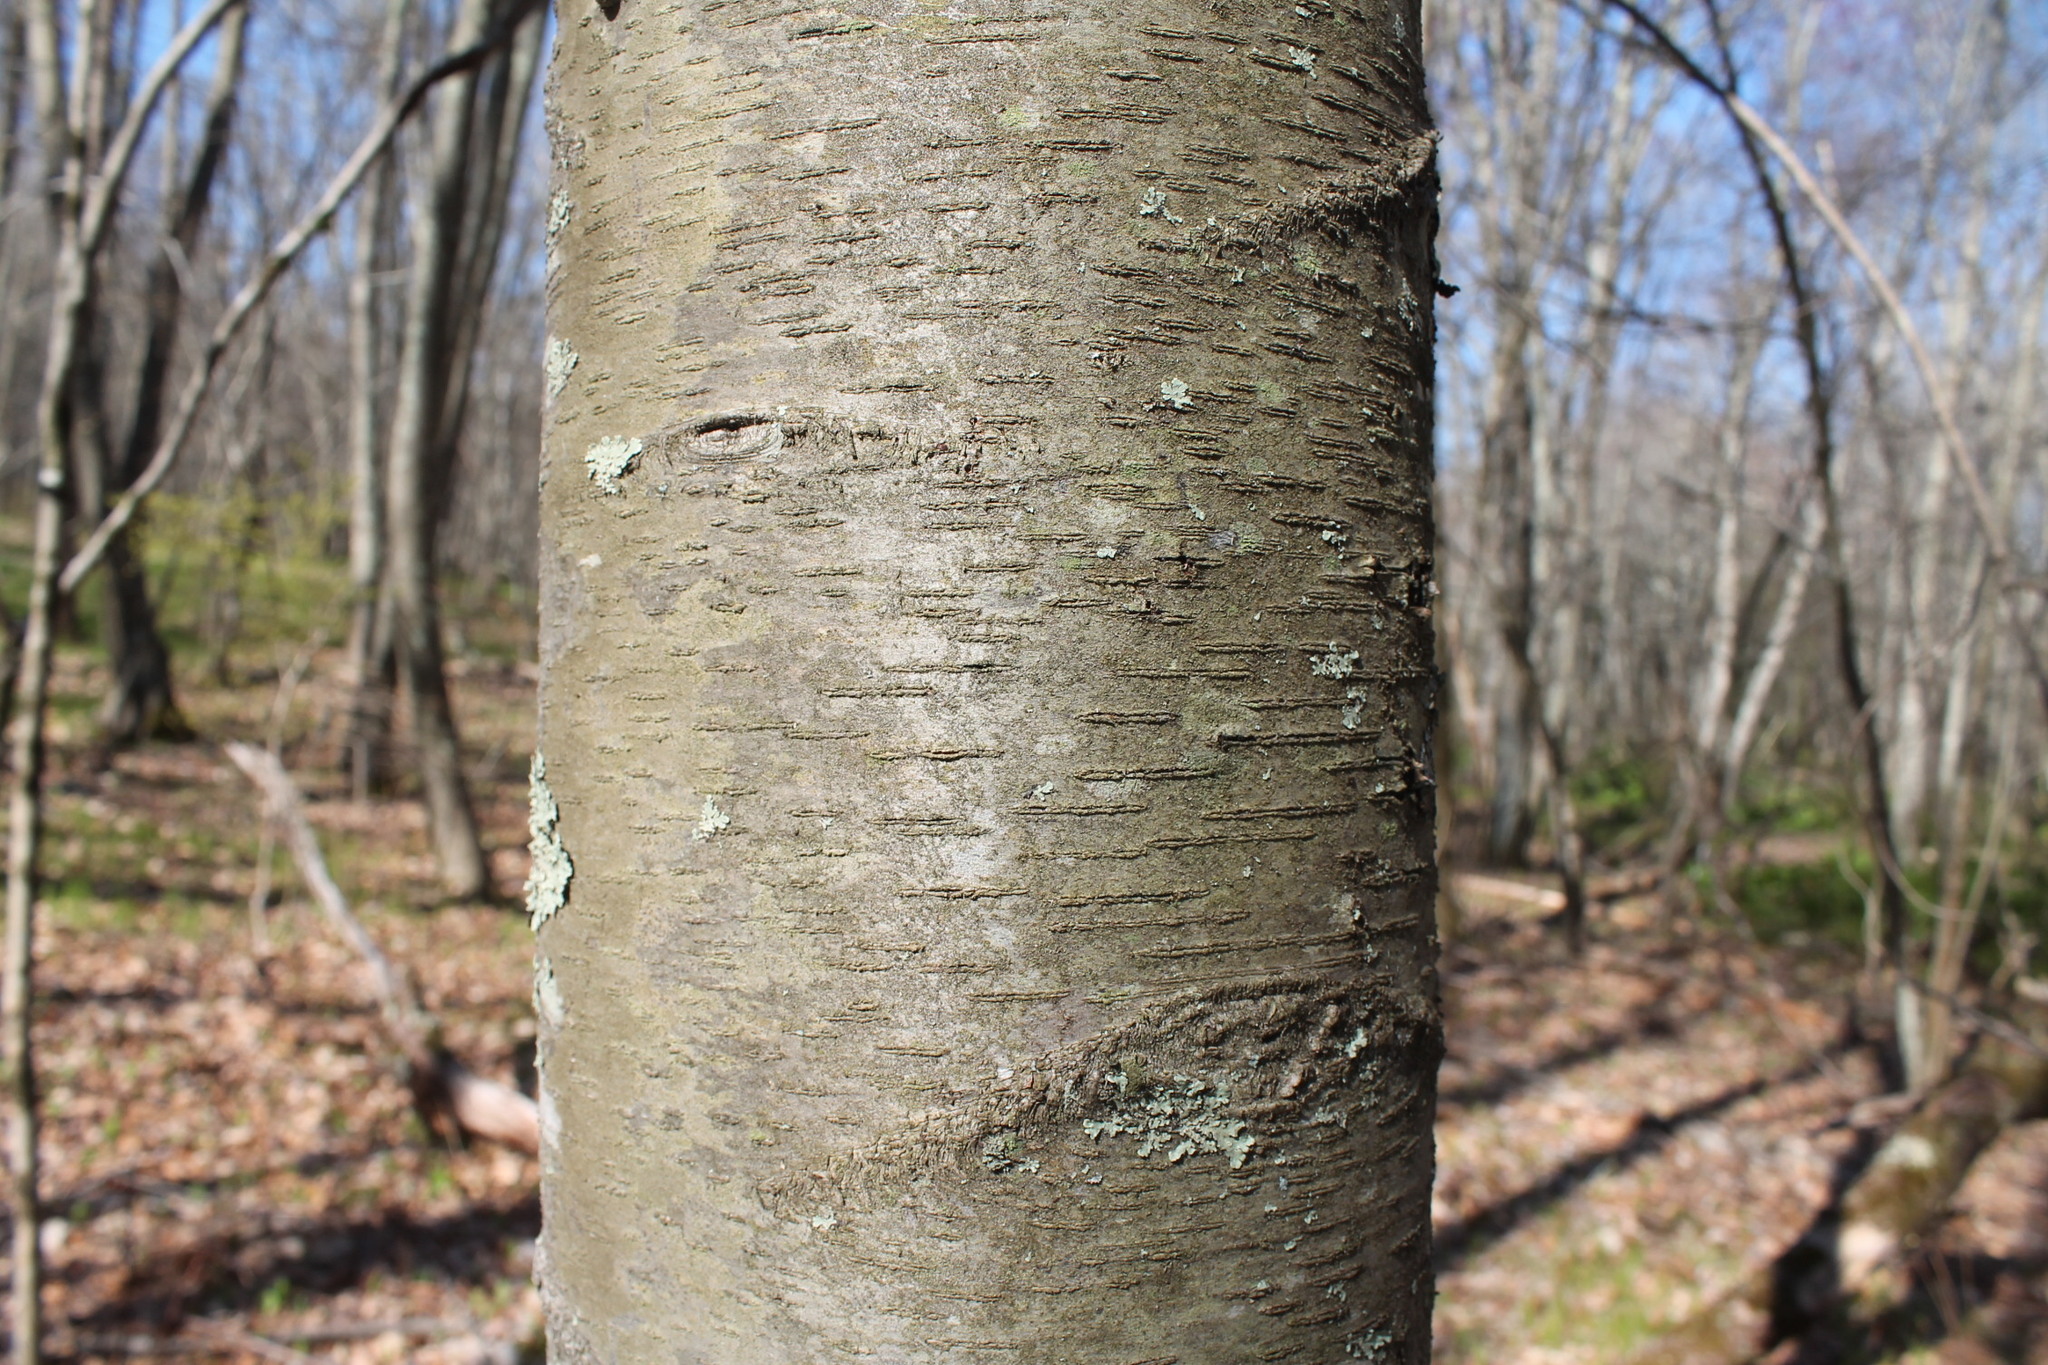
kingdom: Plantae
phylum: Tracheophyta
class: Magnoliopsida
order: Fagales
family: Betulaceae
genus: Betula
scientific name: Betula lenta
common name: Black birch
